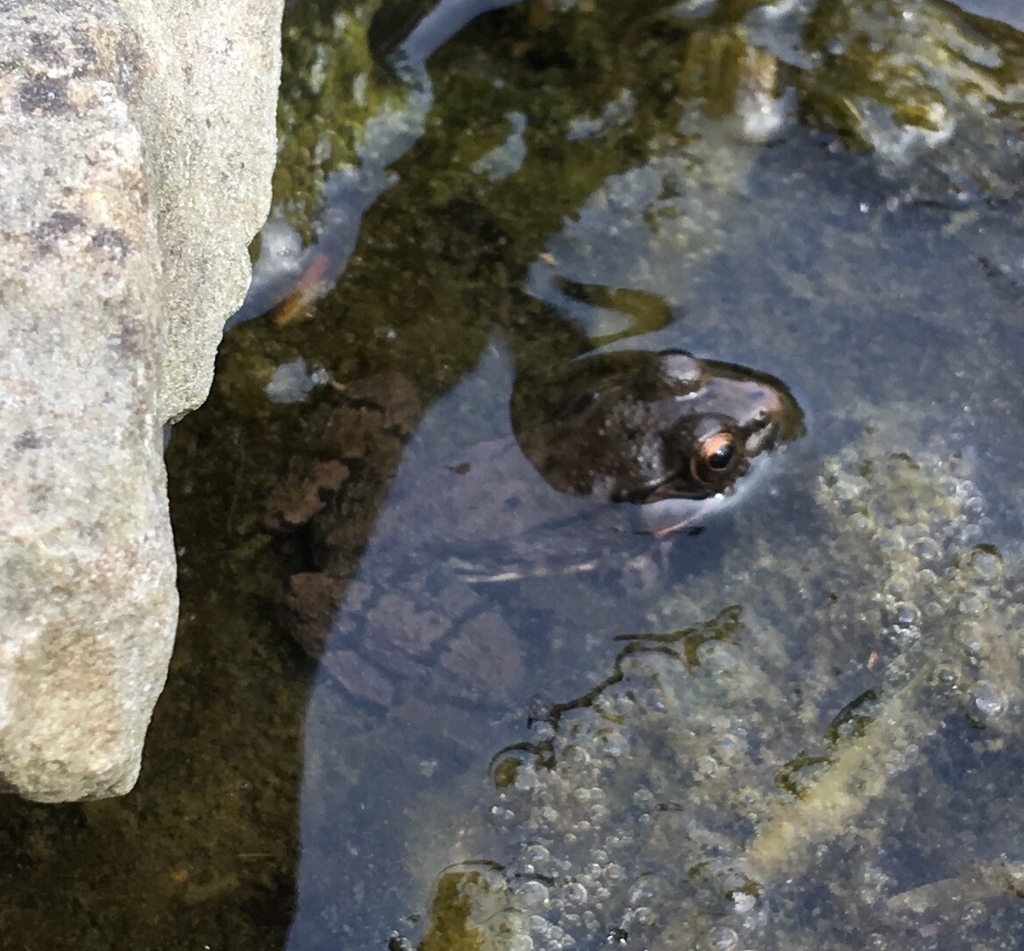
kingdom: Animalia
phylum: Chordata
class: Amphibia
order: Anura
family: Ranidae
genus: Lithobates
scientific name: Lithobates clamitans
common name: Green frog
